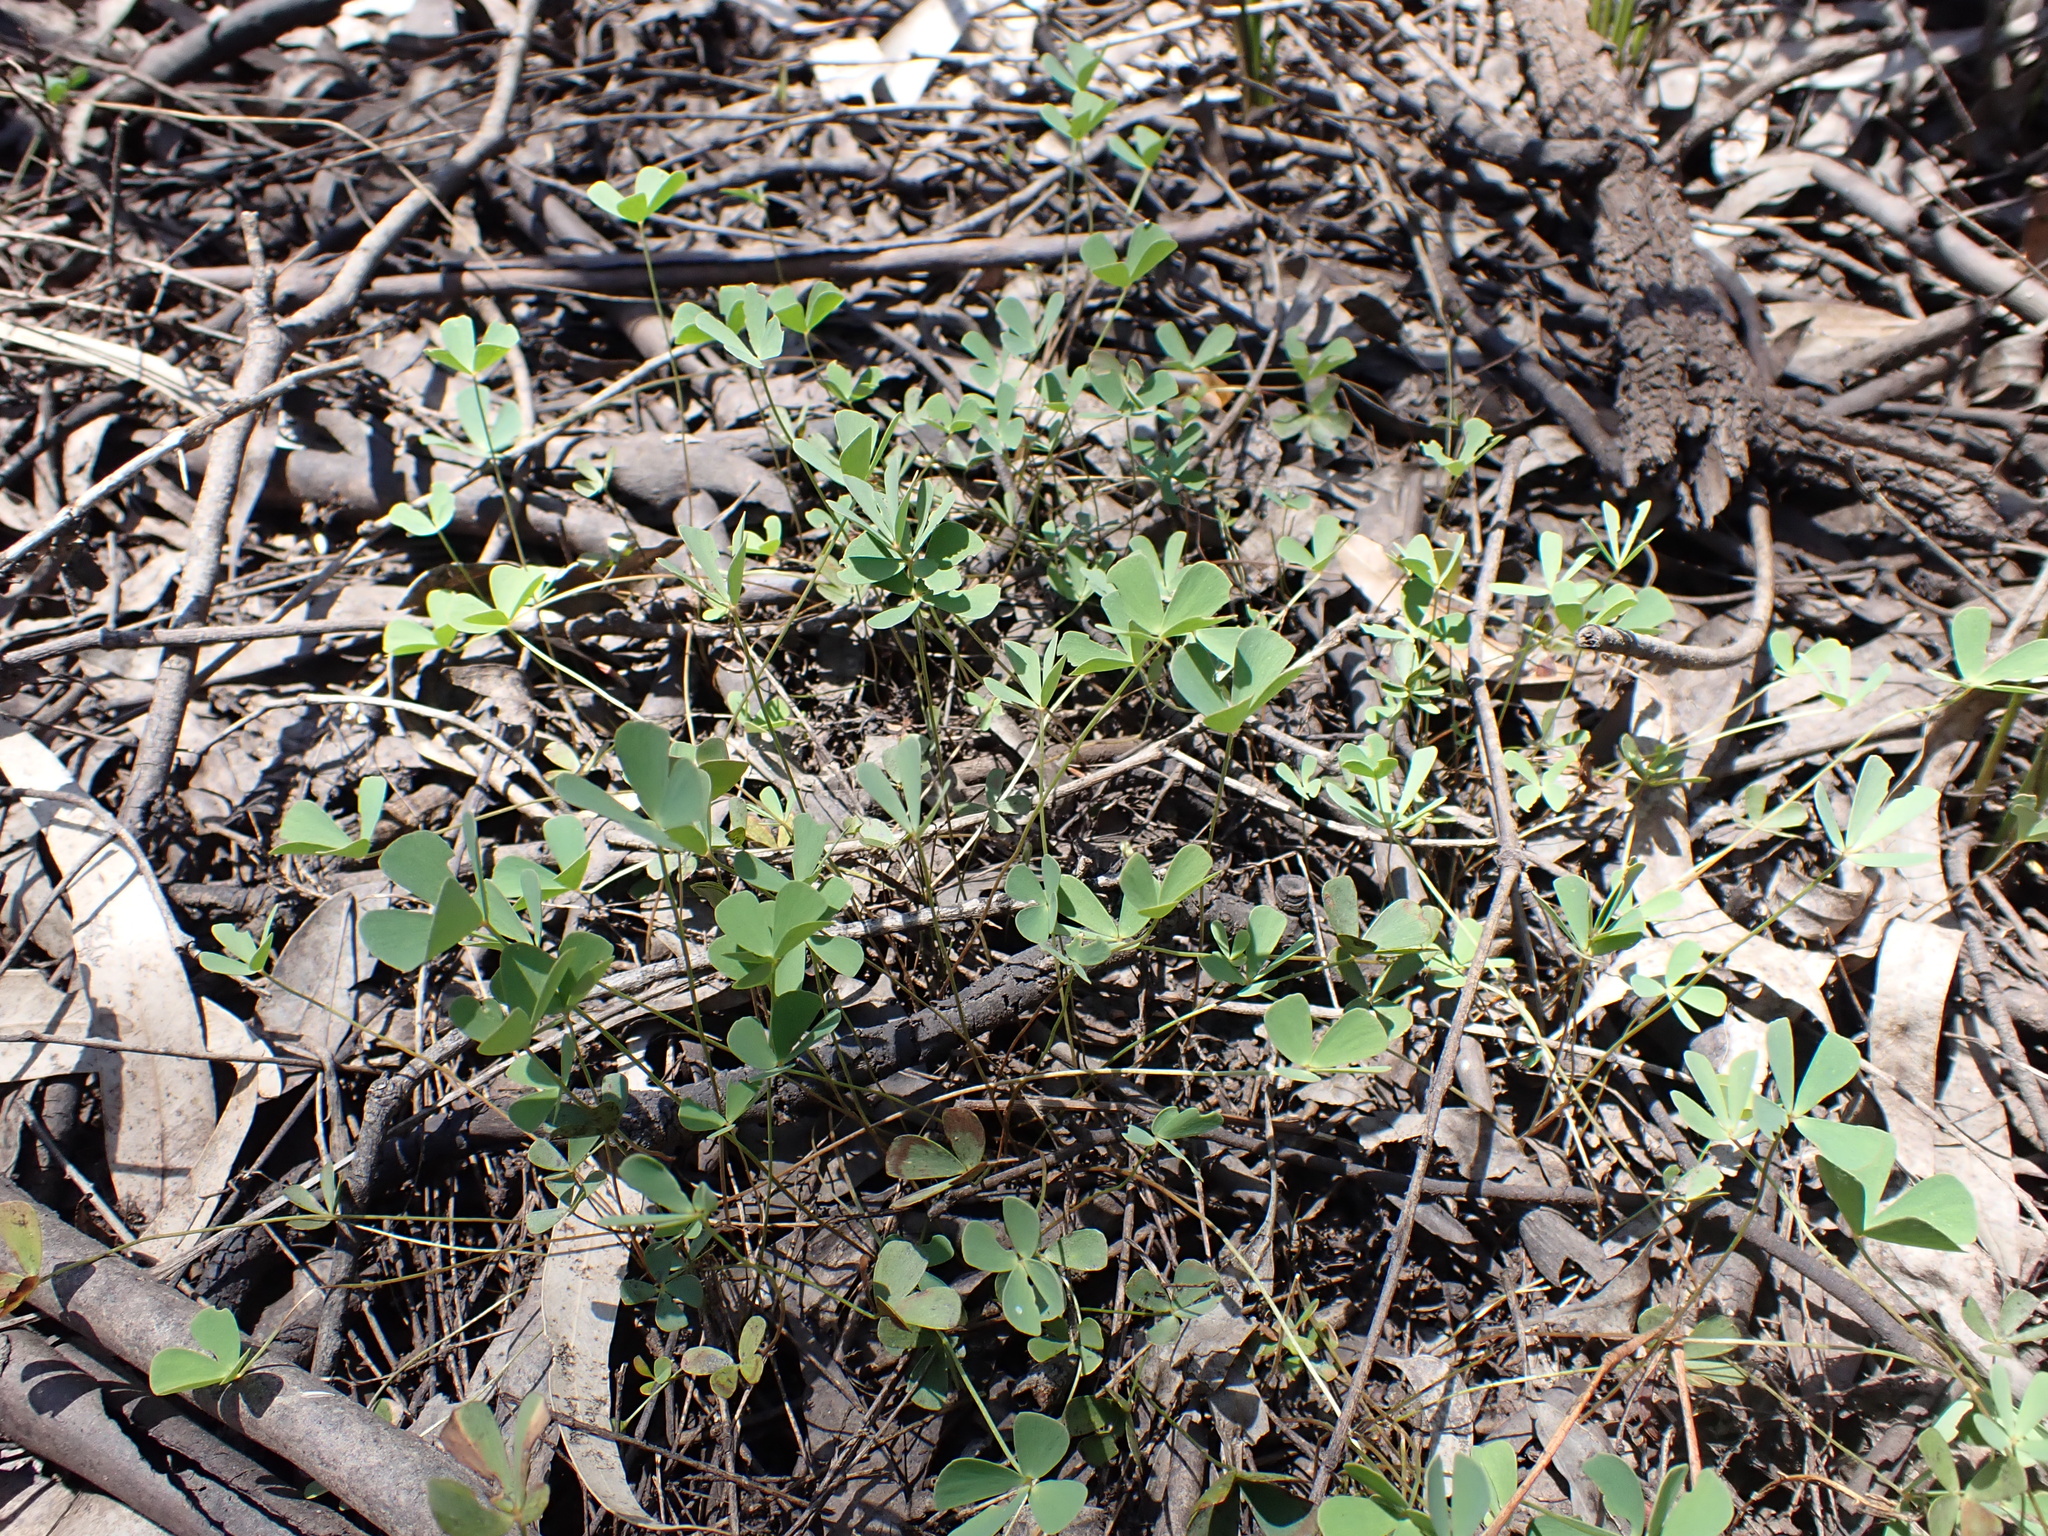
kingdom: Plantae
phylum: Tracheophyta
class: Polypodiopsida
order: Salviniales
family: Marsileaceae
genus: Marsilea
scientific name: Marsilea costulifera
